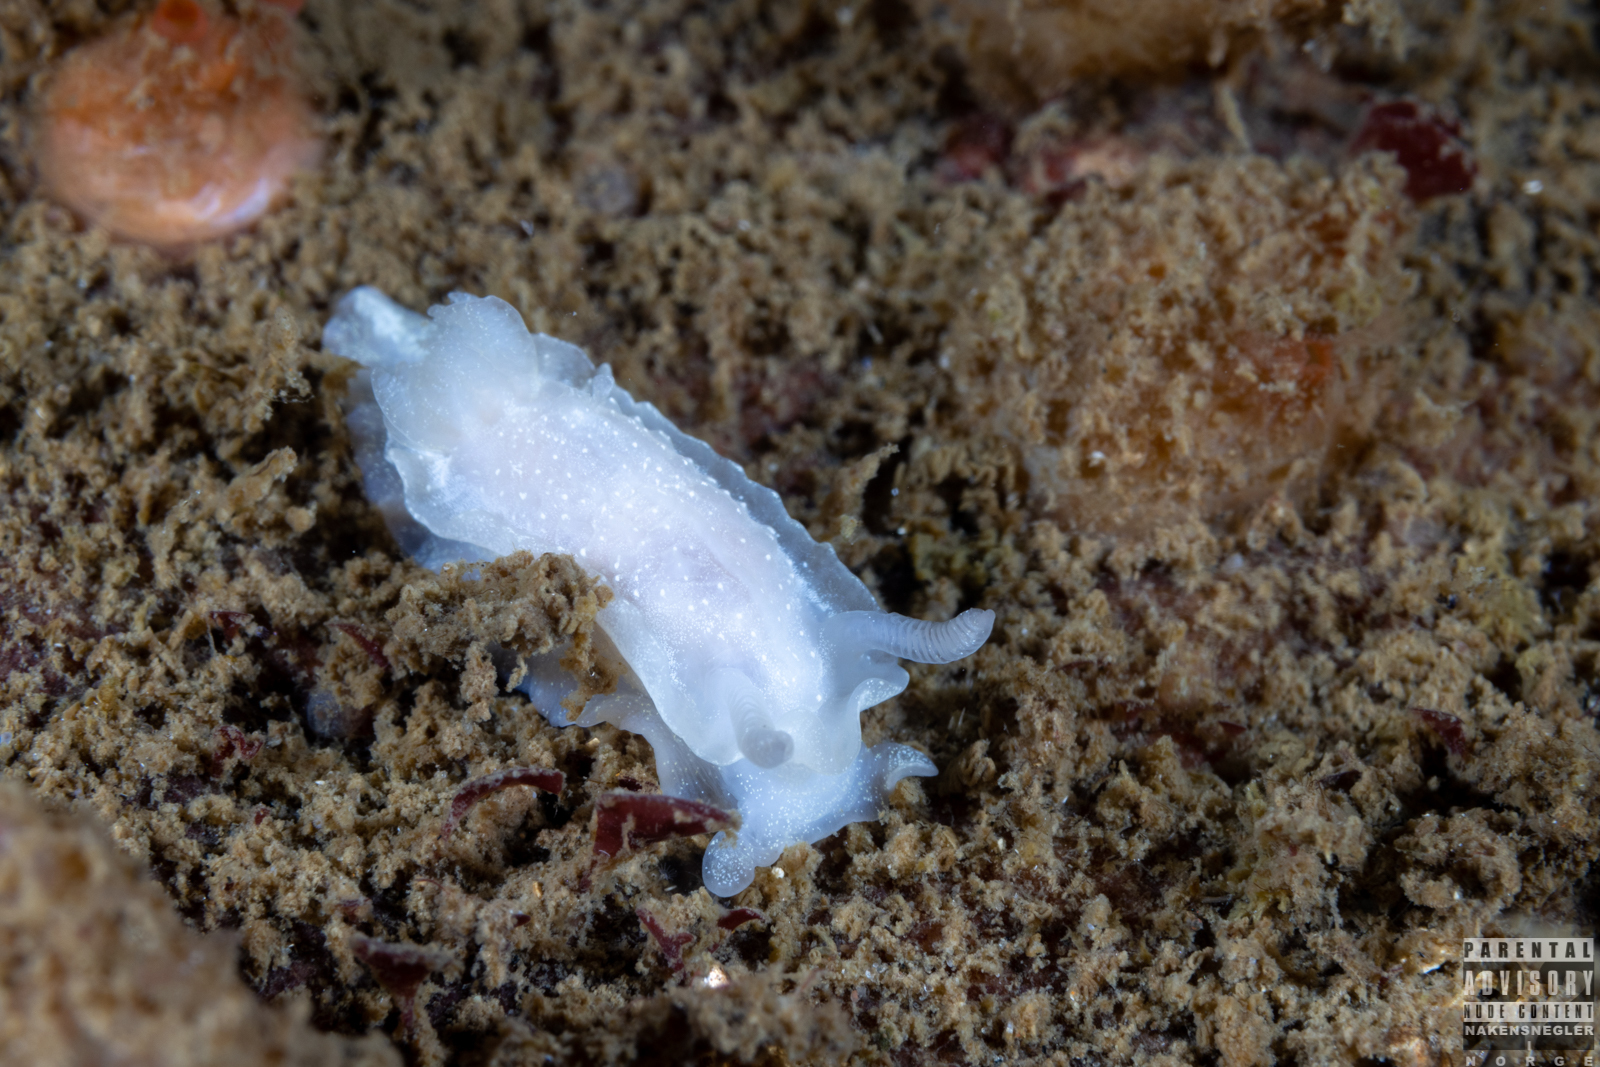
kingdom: Animalia
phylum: Mollusca
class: Gastropoda
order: Nudibranchia
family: Goniodorididae
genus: Okenia
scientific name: Okenia
